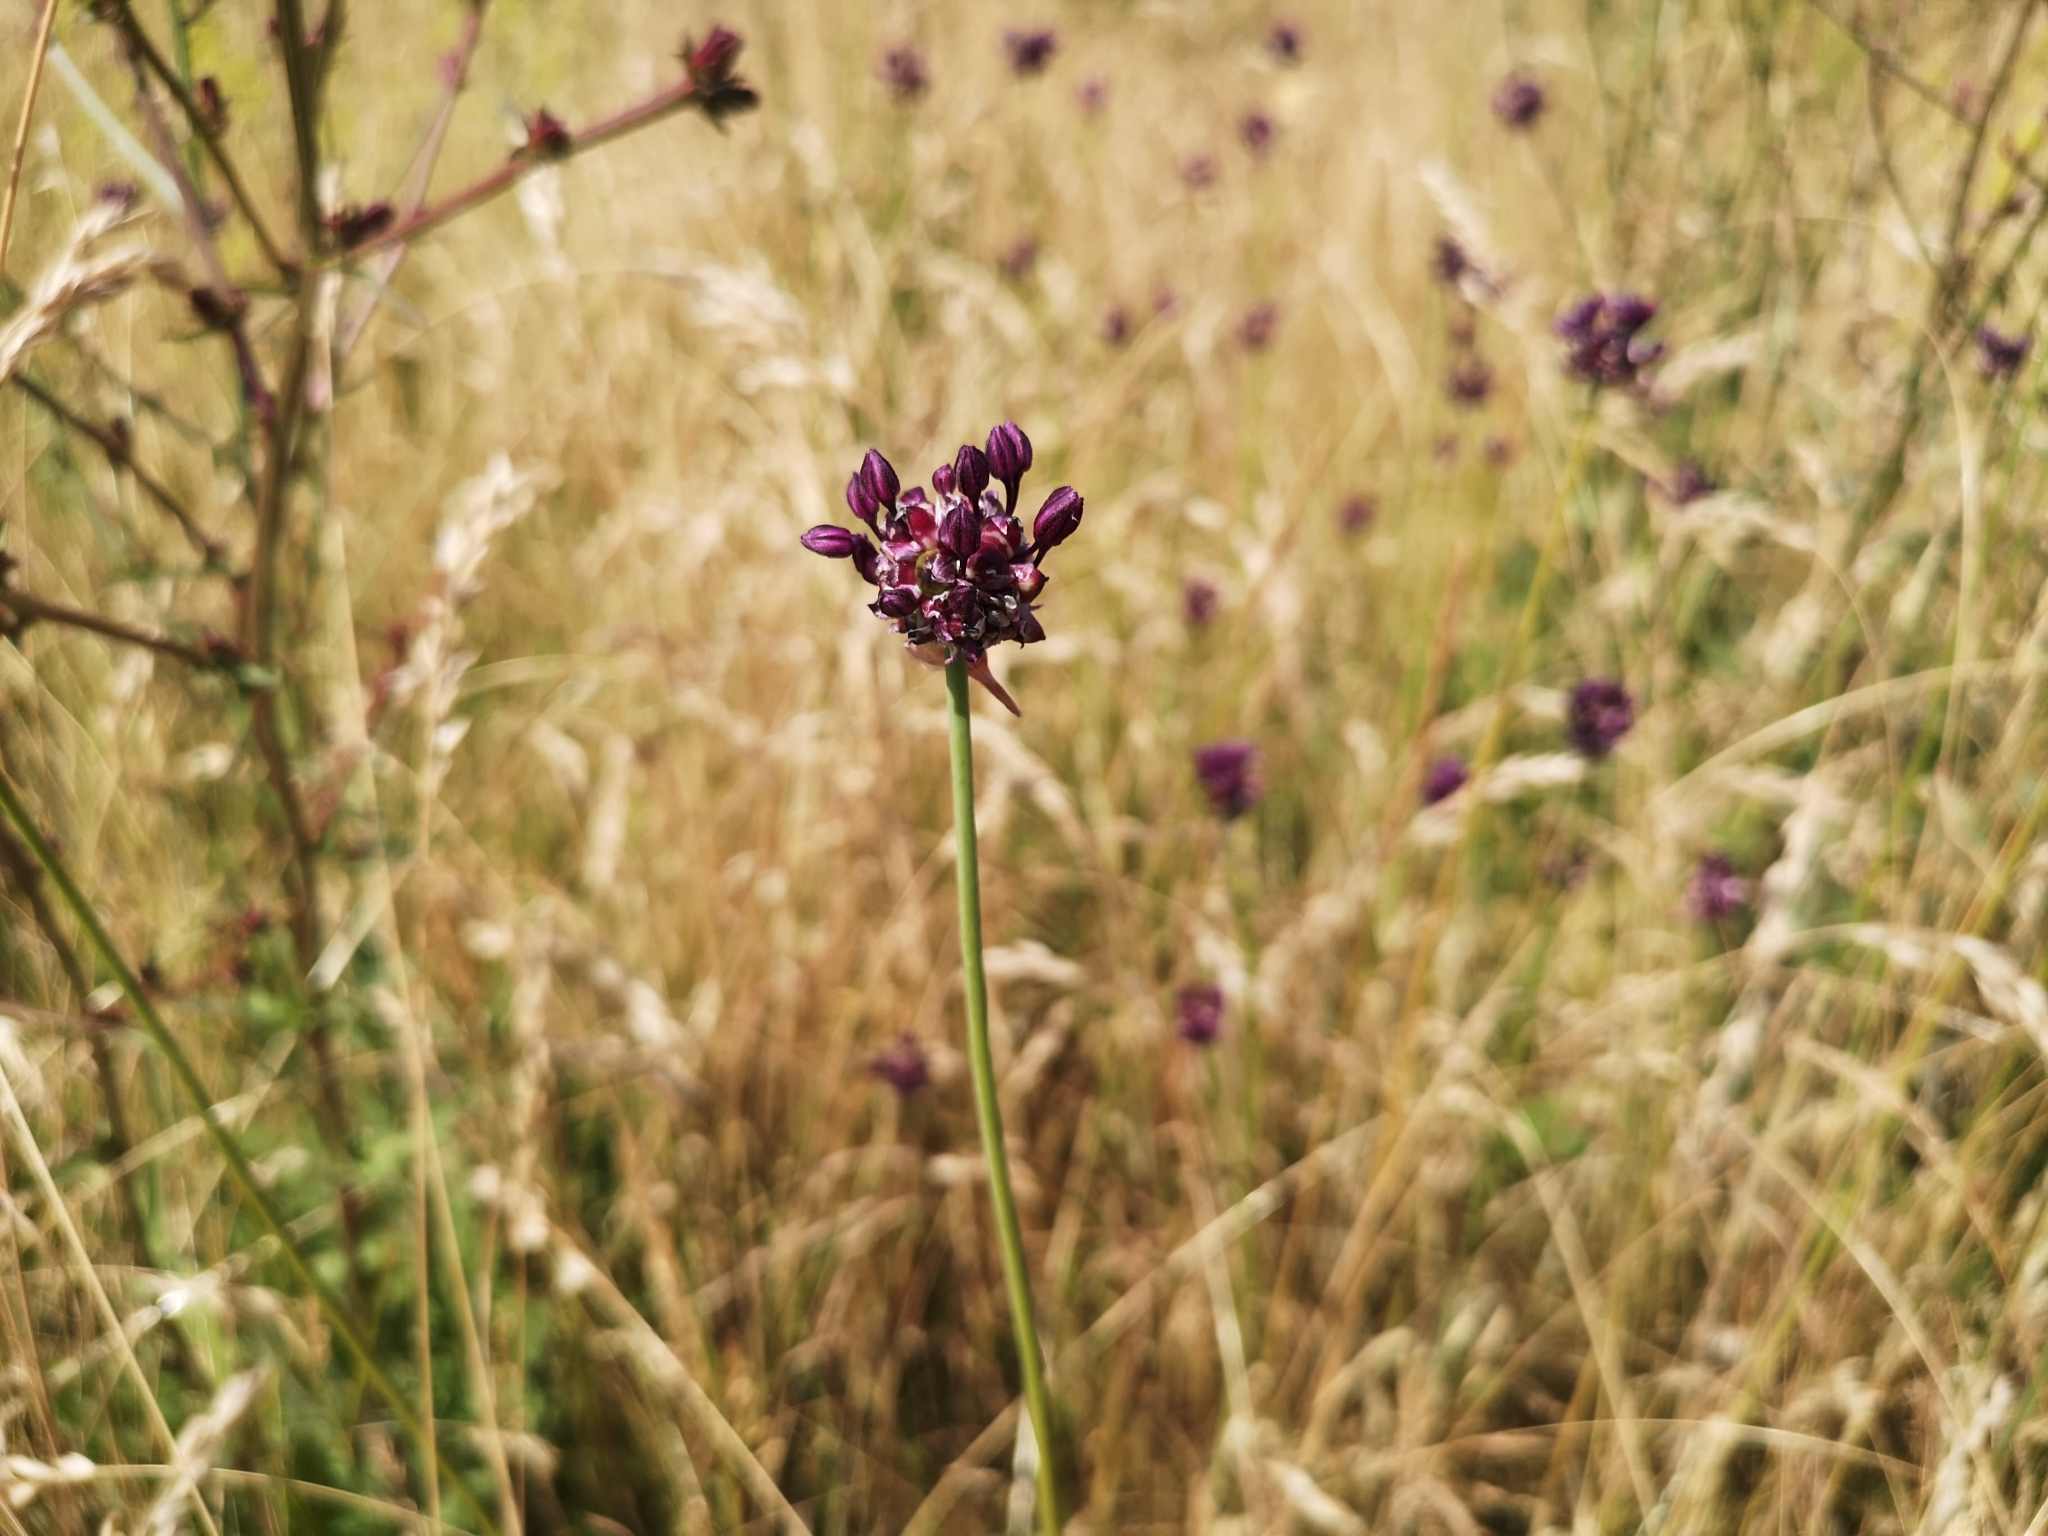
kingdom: Plantae
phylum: Tracheophyta
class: Liliopsida
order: Asparagales
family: Amaryllidaceae
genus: Allium
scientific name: Allium scorodoprasum
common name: Sand leek
